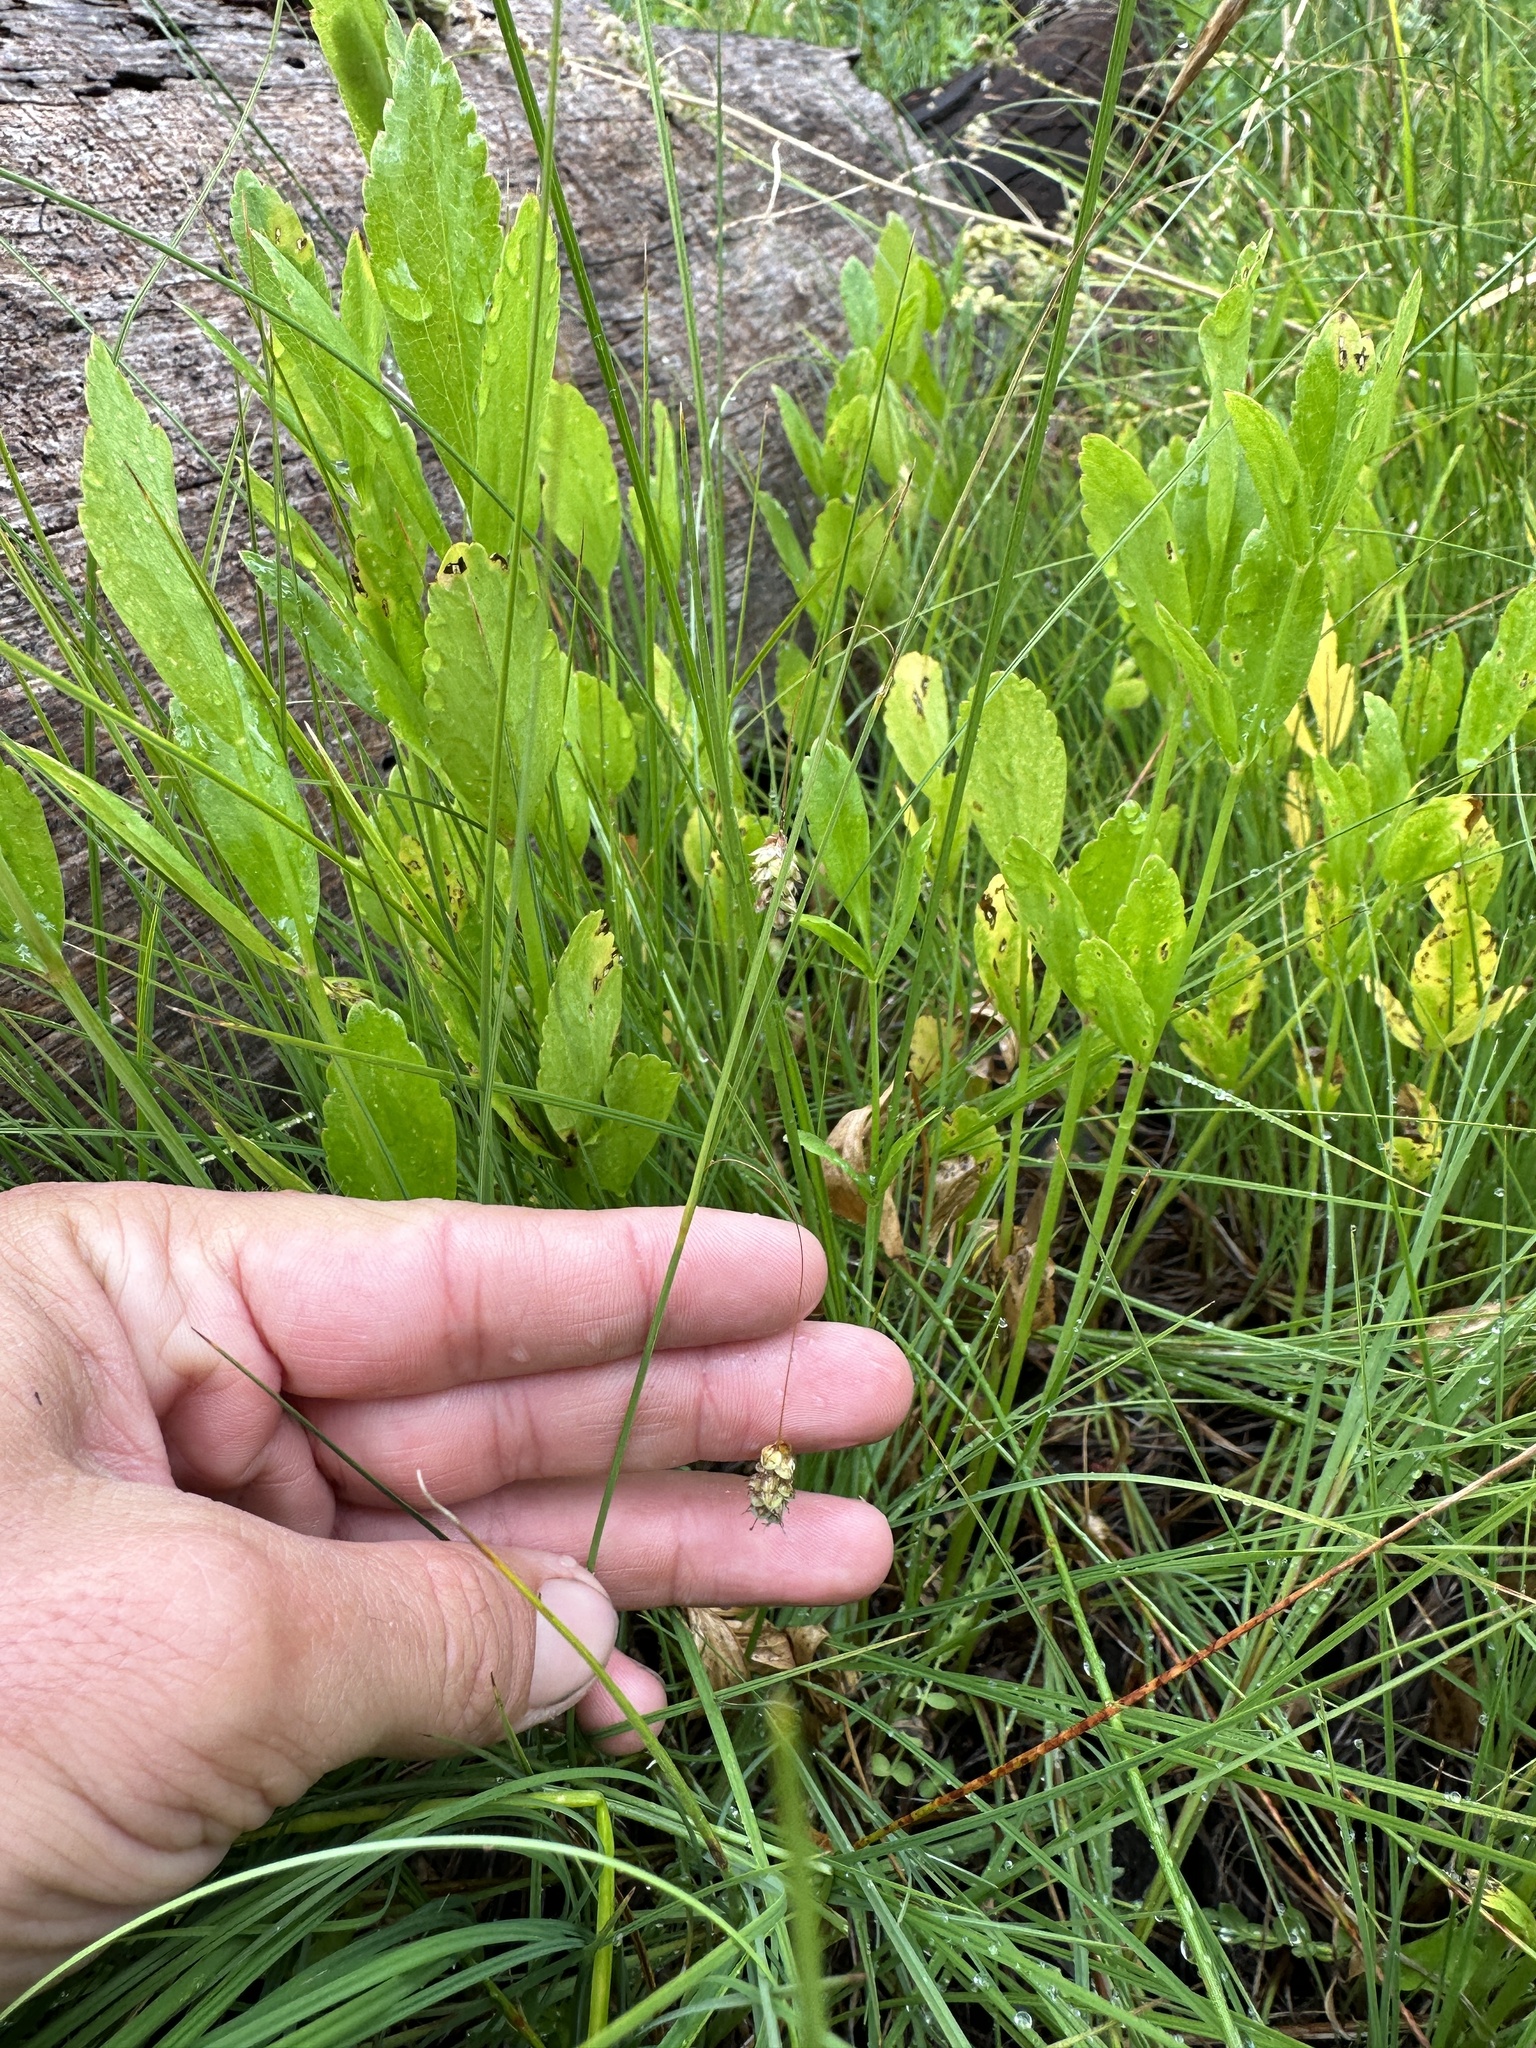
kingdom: Plantae
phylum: Tracheophyta
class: Liliopsida
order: Poales
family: Cyperaceae
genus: Carex
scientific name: Carex limosa
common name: Bog sedge
